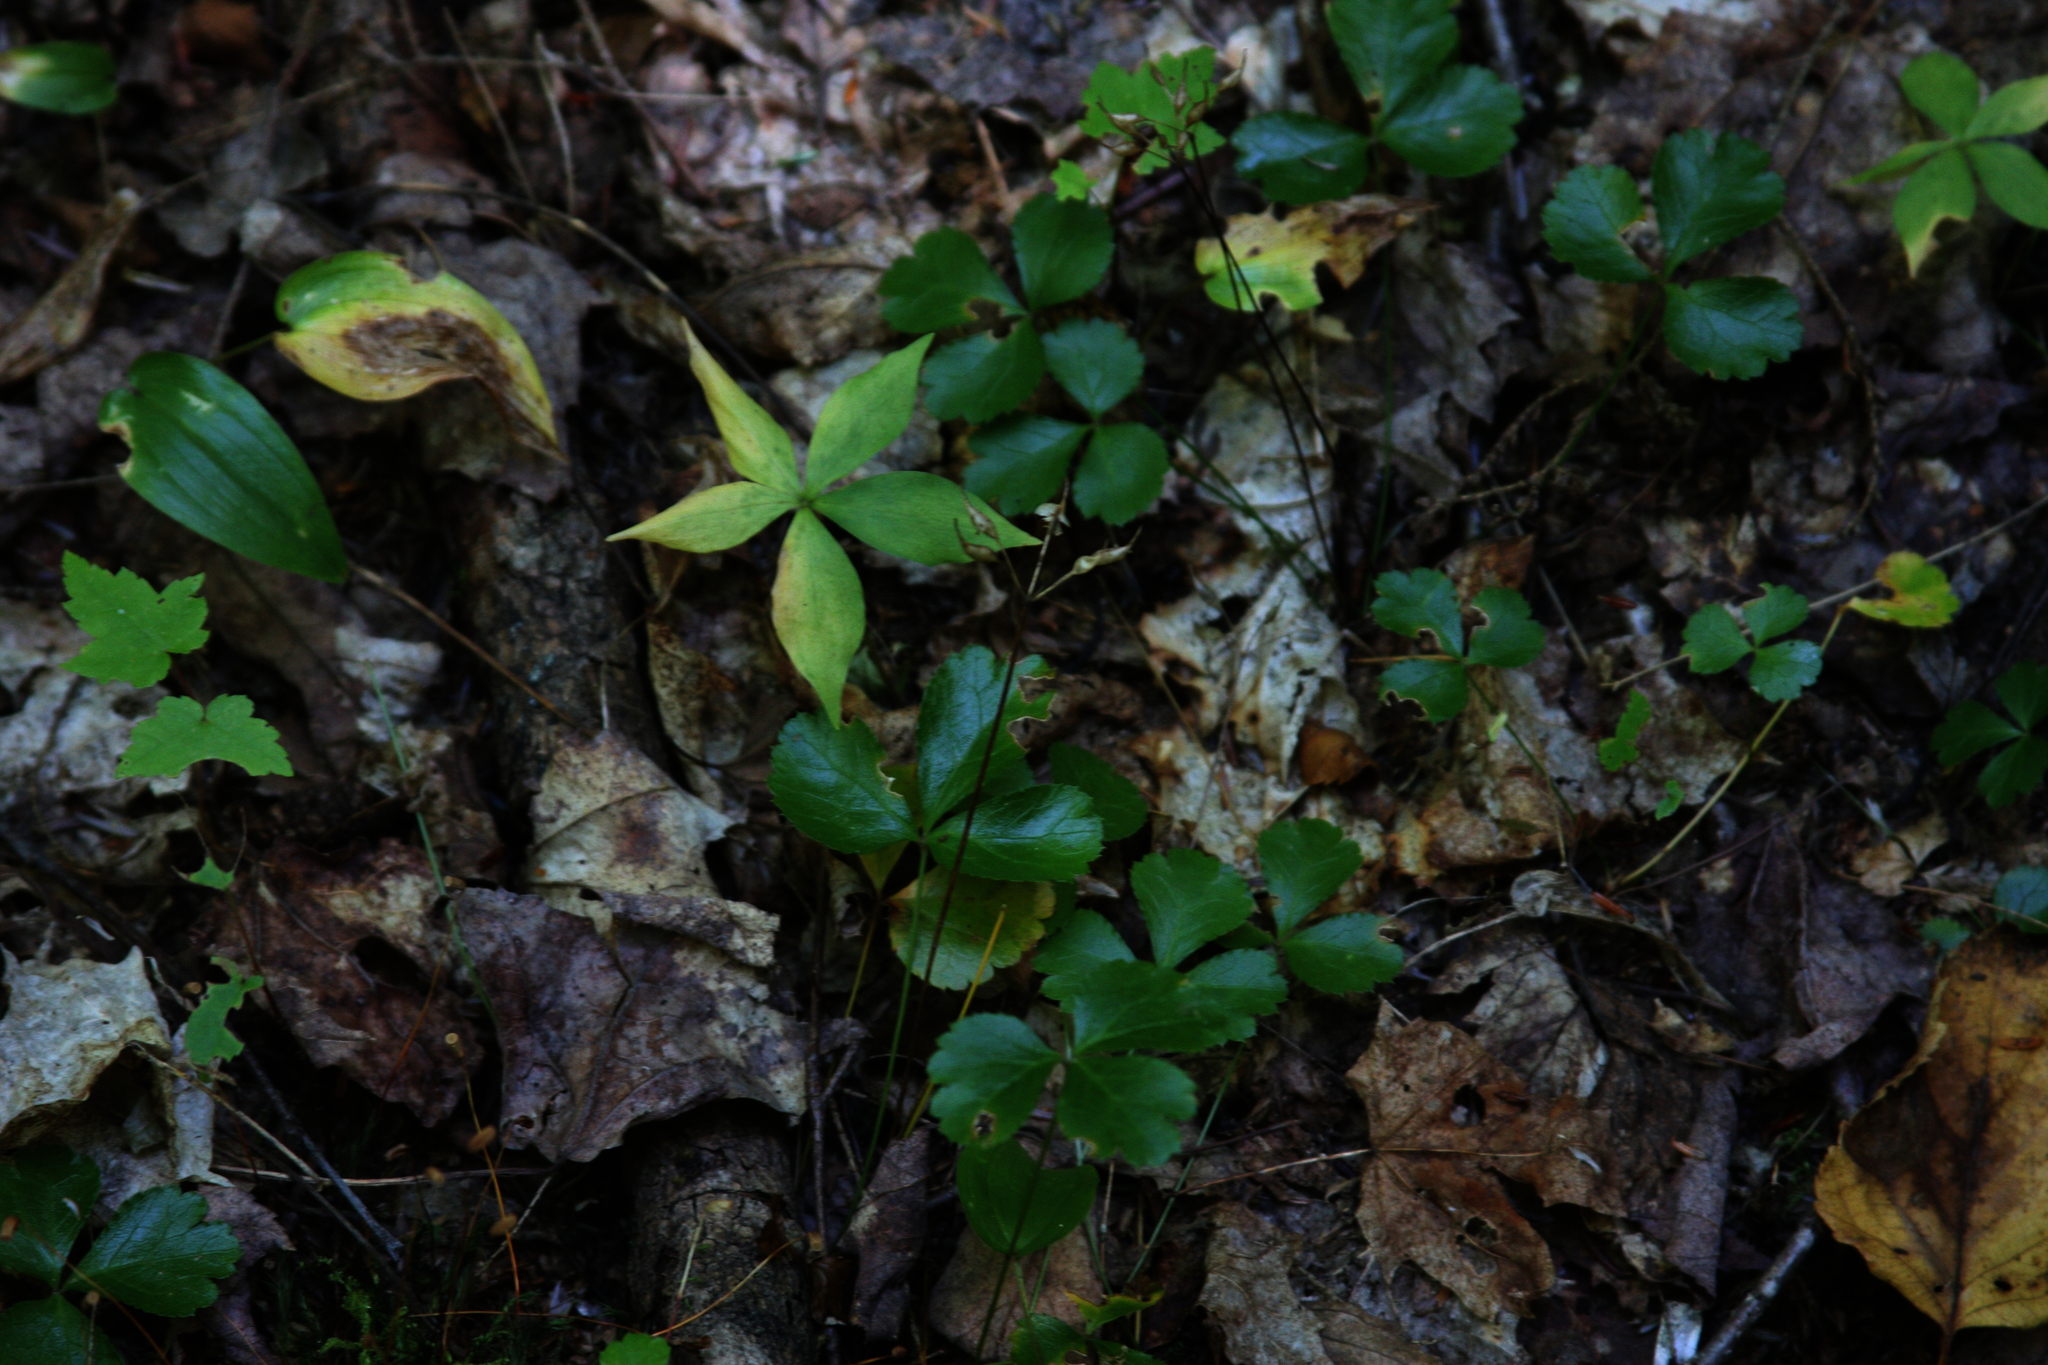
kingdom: Plantae
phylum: Tracheophyta
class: Magnoliopsida
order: Ranunculales
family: Ranunculaceae
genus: Coptis
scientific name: Coptis trifolia
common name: Canker-root
